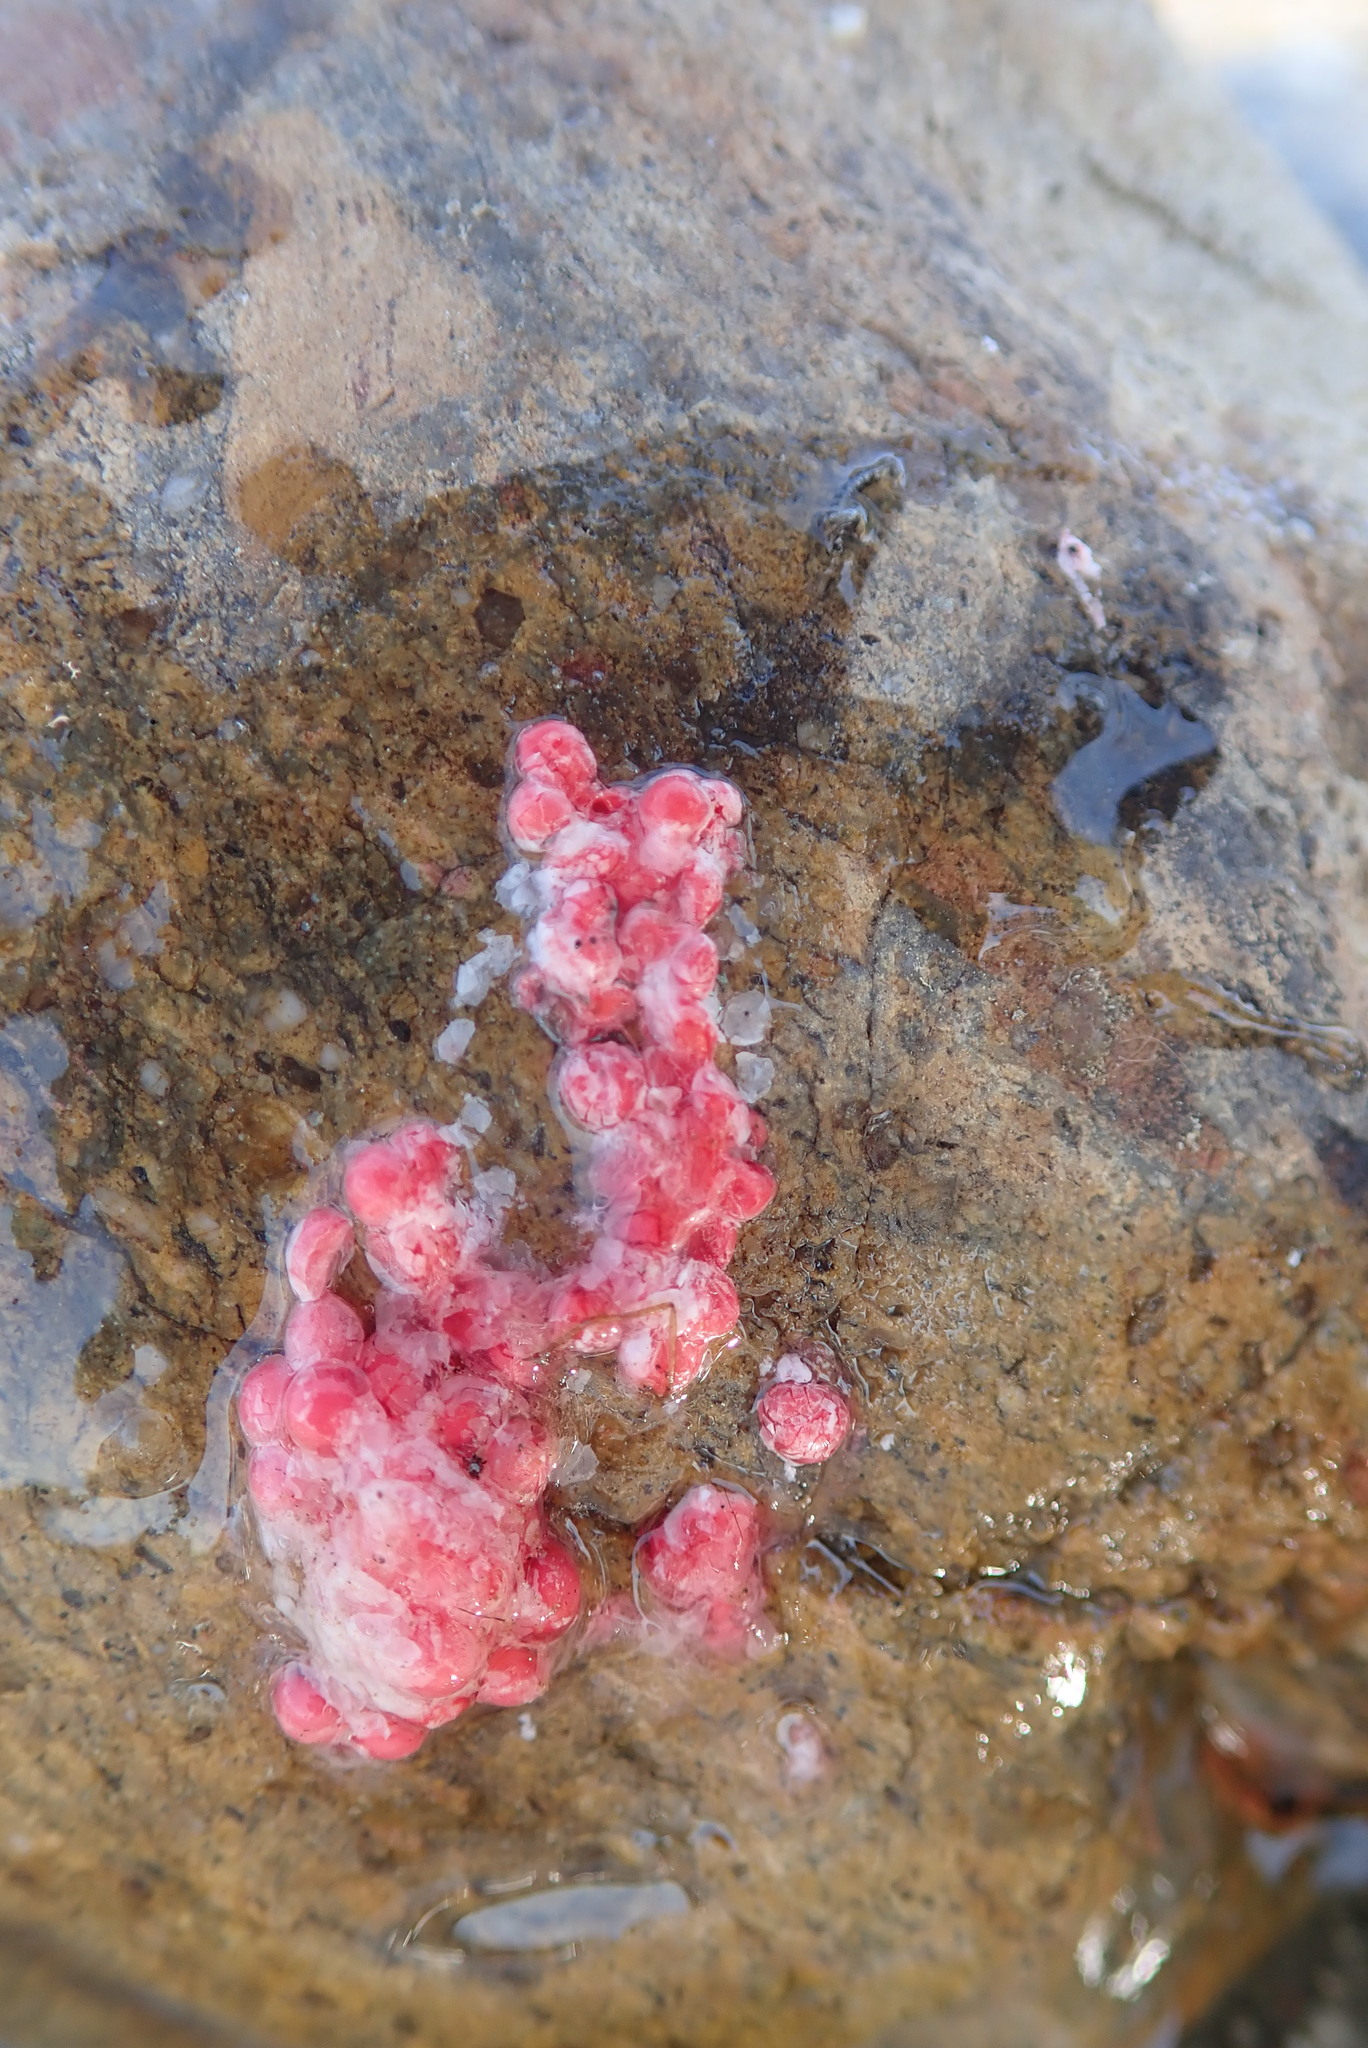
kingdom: Animalia
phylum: Mollusca
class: Gastropoda
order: Architaenioglossa
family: Ampullariidae
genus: Pomacea
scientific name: Pomacea canaliculata
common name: Channeled applesnail
